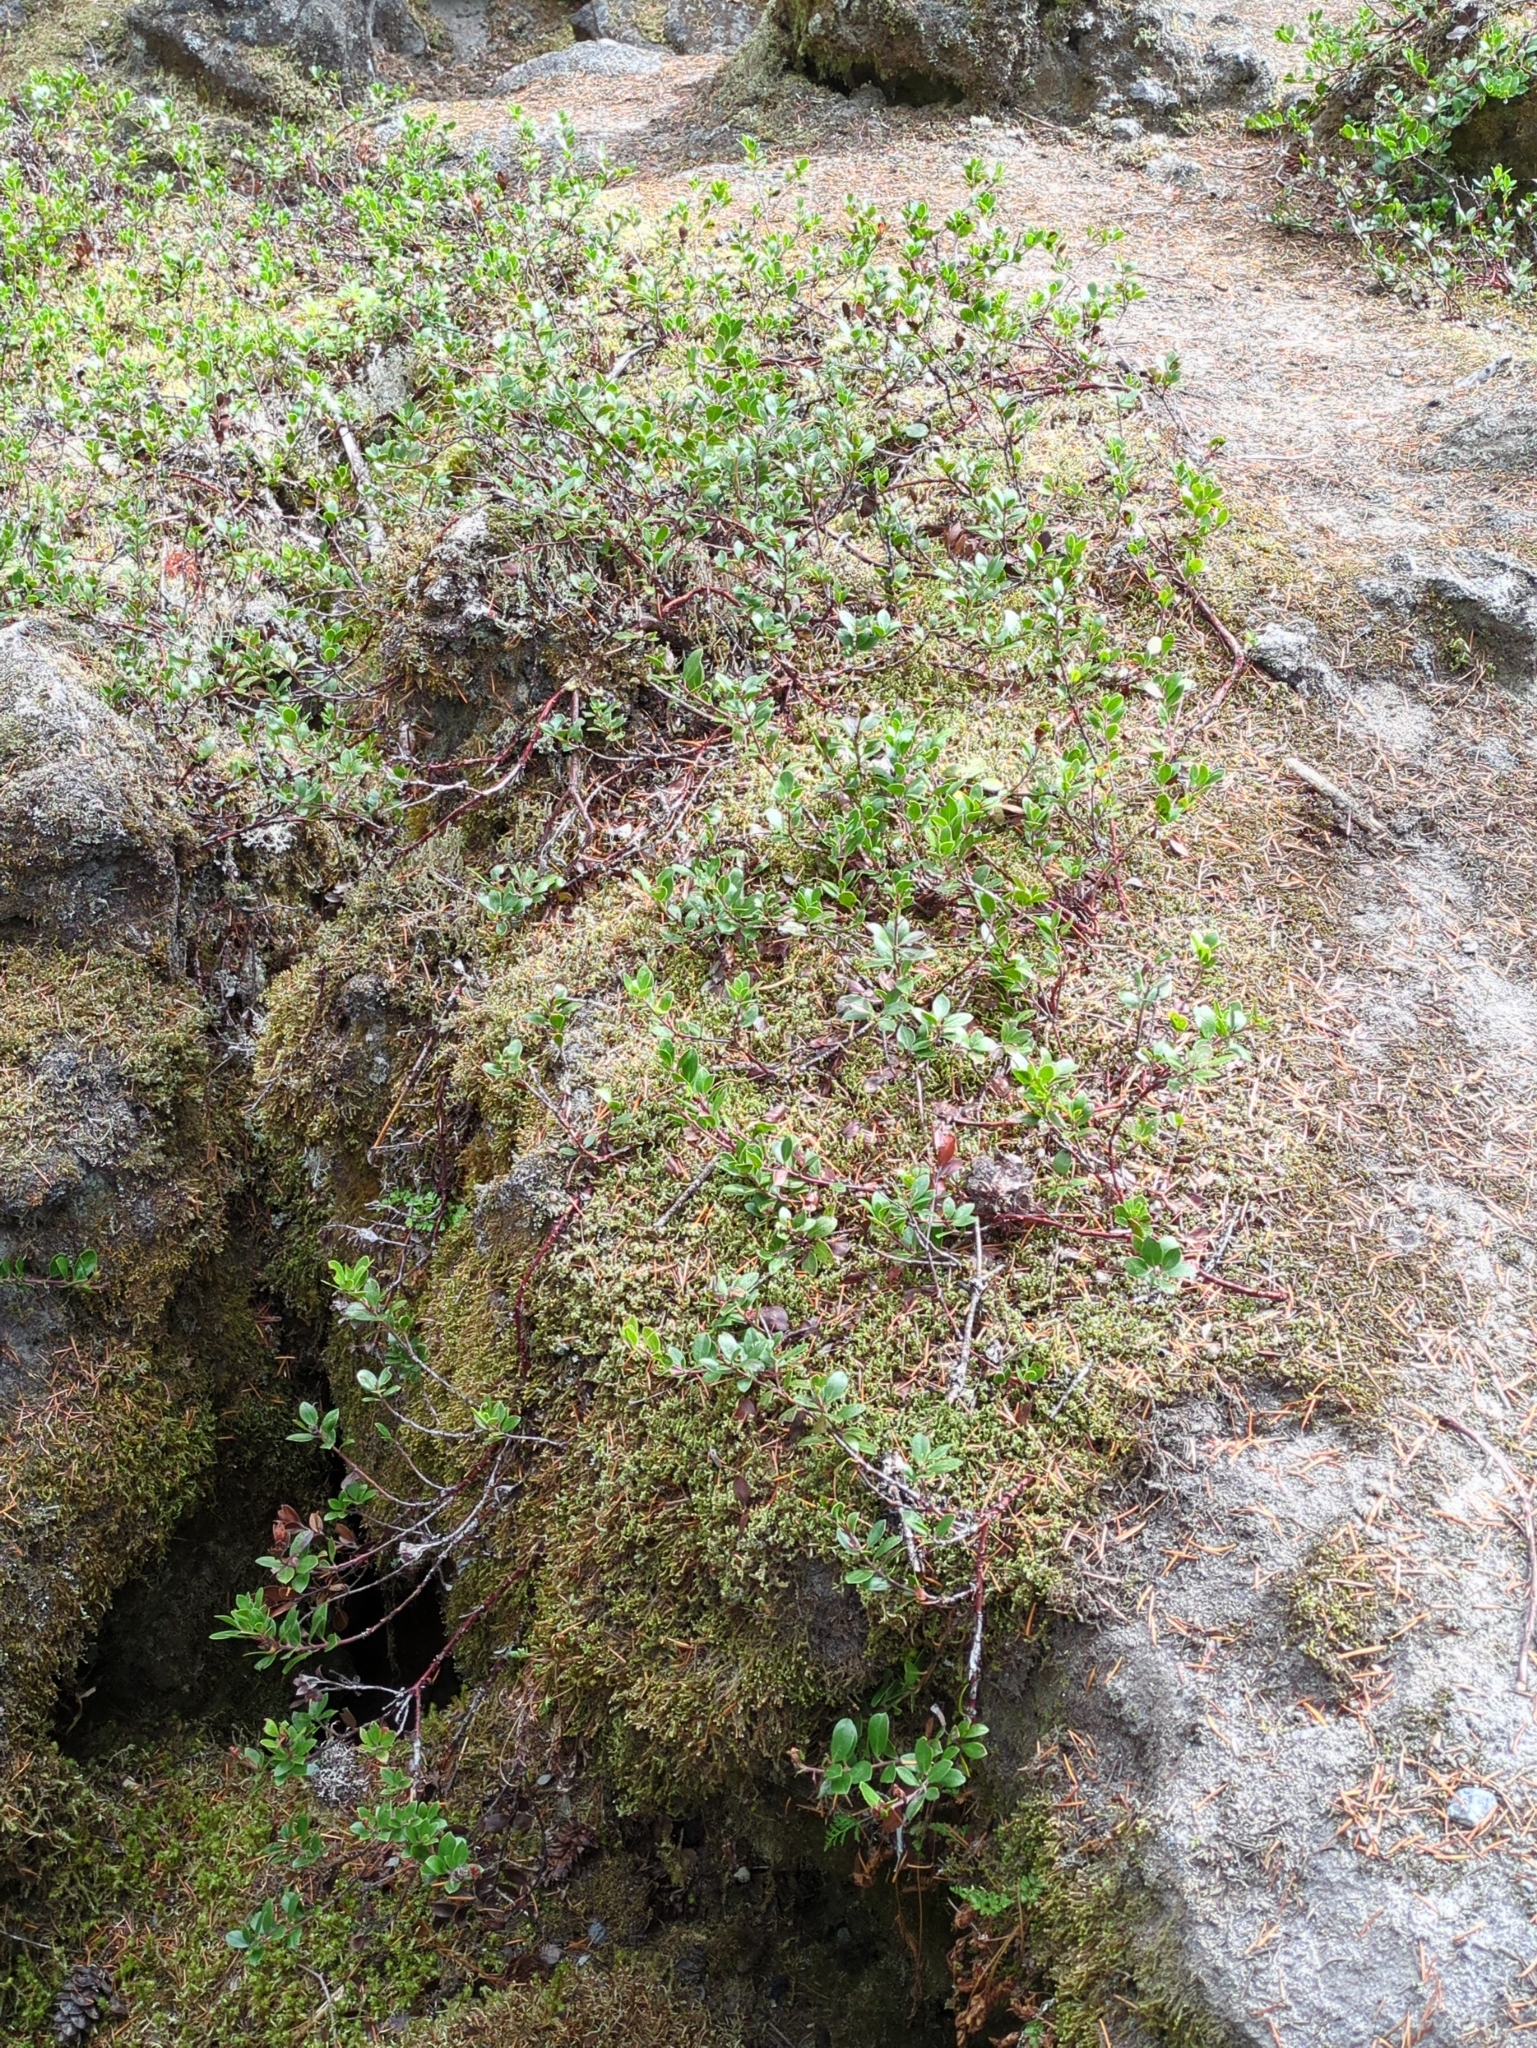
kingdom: Plantae
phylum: Tracheophyta
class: Magnoliopsida
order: Ericales
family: Ericaceae
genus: Arctostaphylos
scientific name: Arctostaphylos uva-ursi
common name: Bearberry
